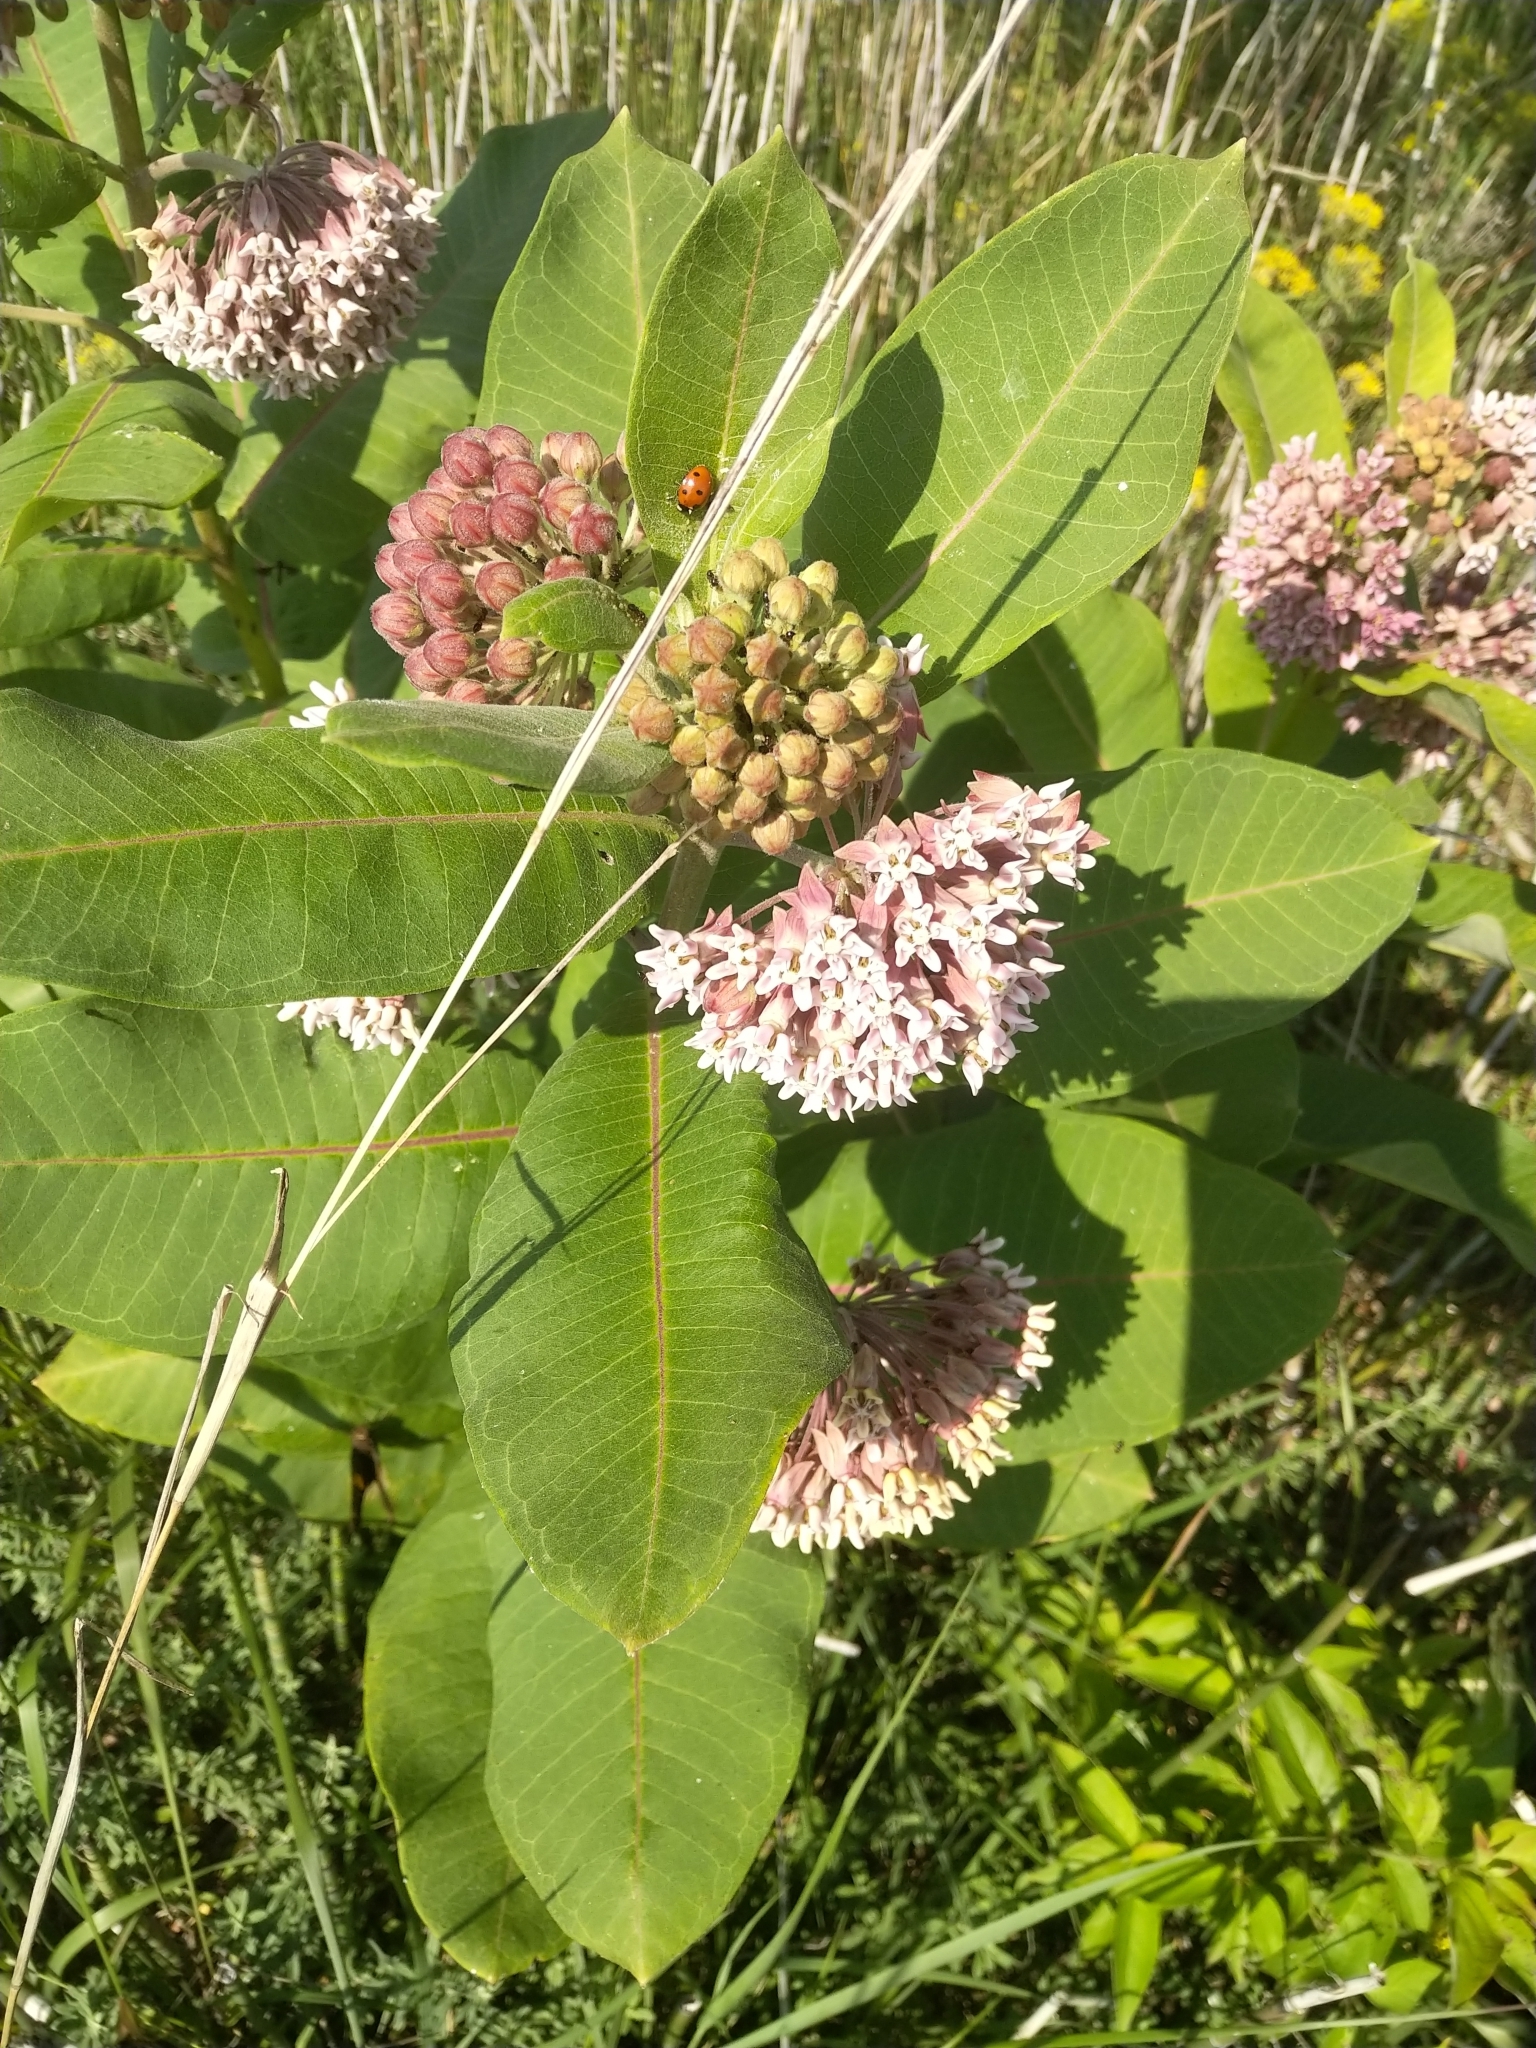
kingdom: Plantae
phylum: Tracheophyta
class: Magnoliopsida
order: Gentianales
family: Apocynaceae
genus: Asclepias
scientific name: Asclepias syriaca
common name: Common milkweed
